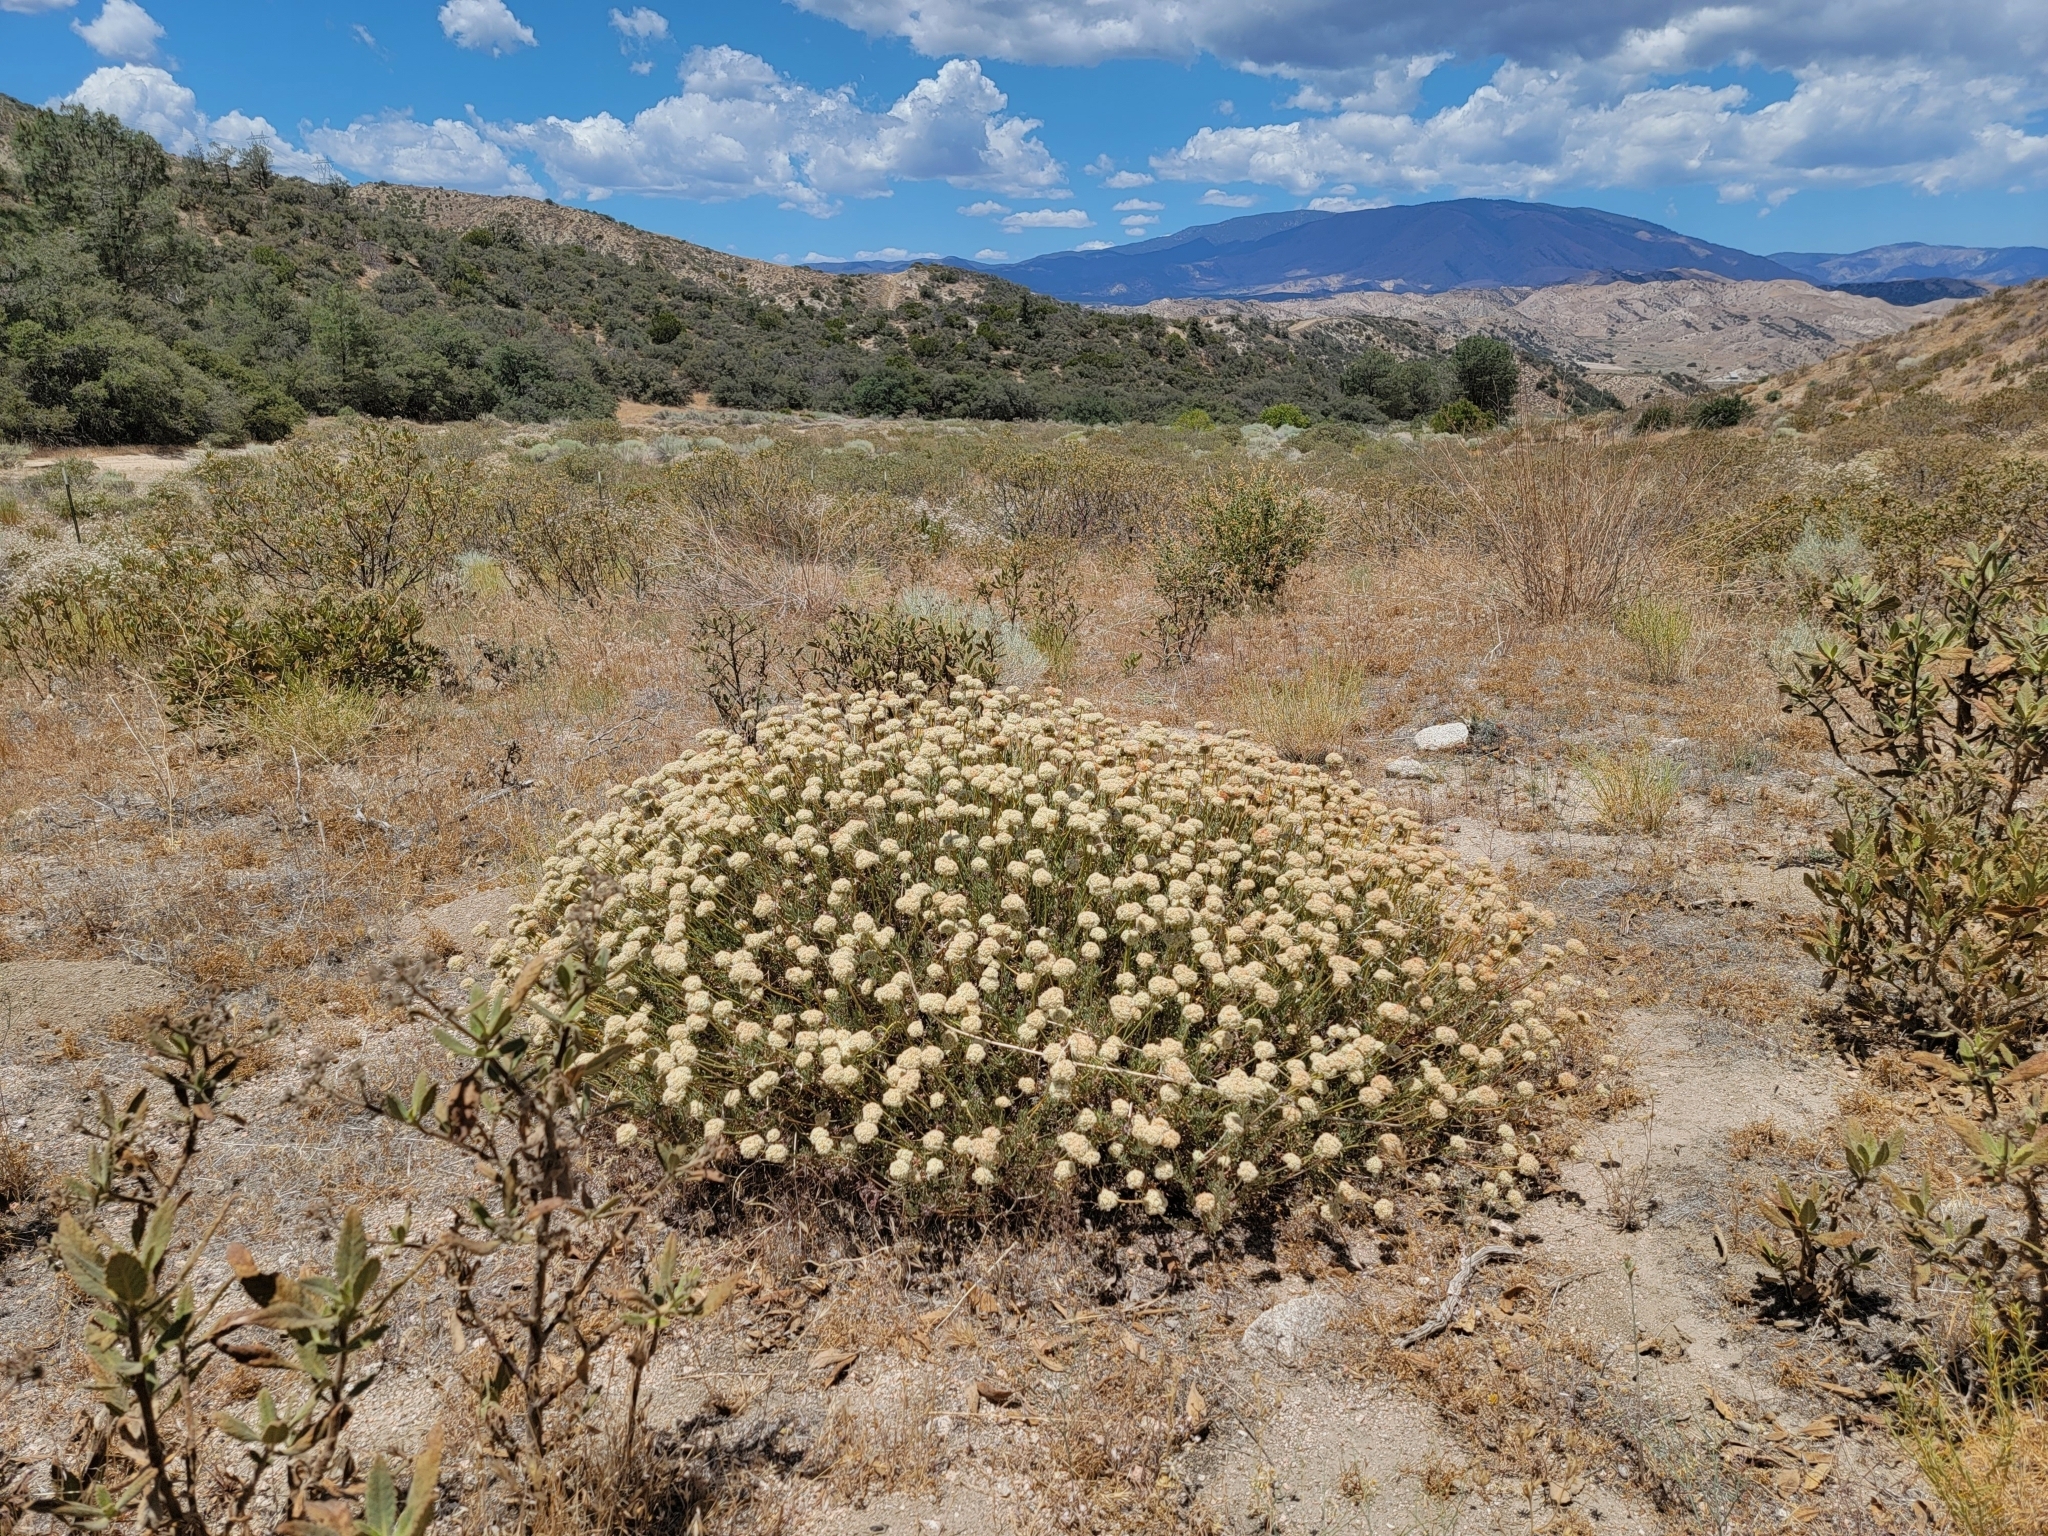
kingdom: Plantae
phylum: Tracheophyta
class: Magnoliopsida
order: Caryophyllales
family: Polygonaceae
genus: Eriogonum
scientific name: Eriogonum fasciculatum
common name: California wild buckwheat
